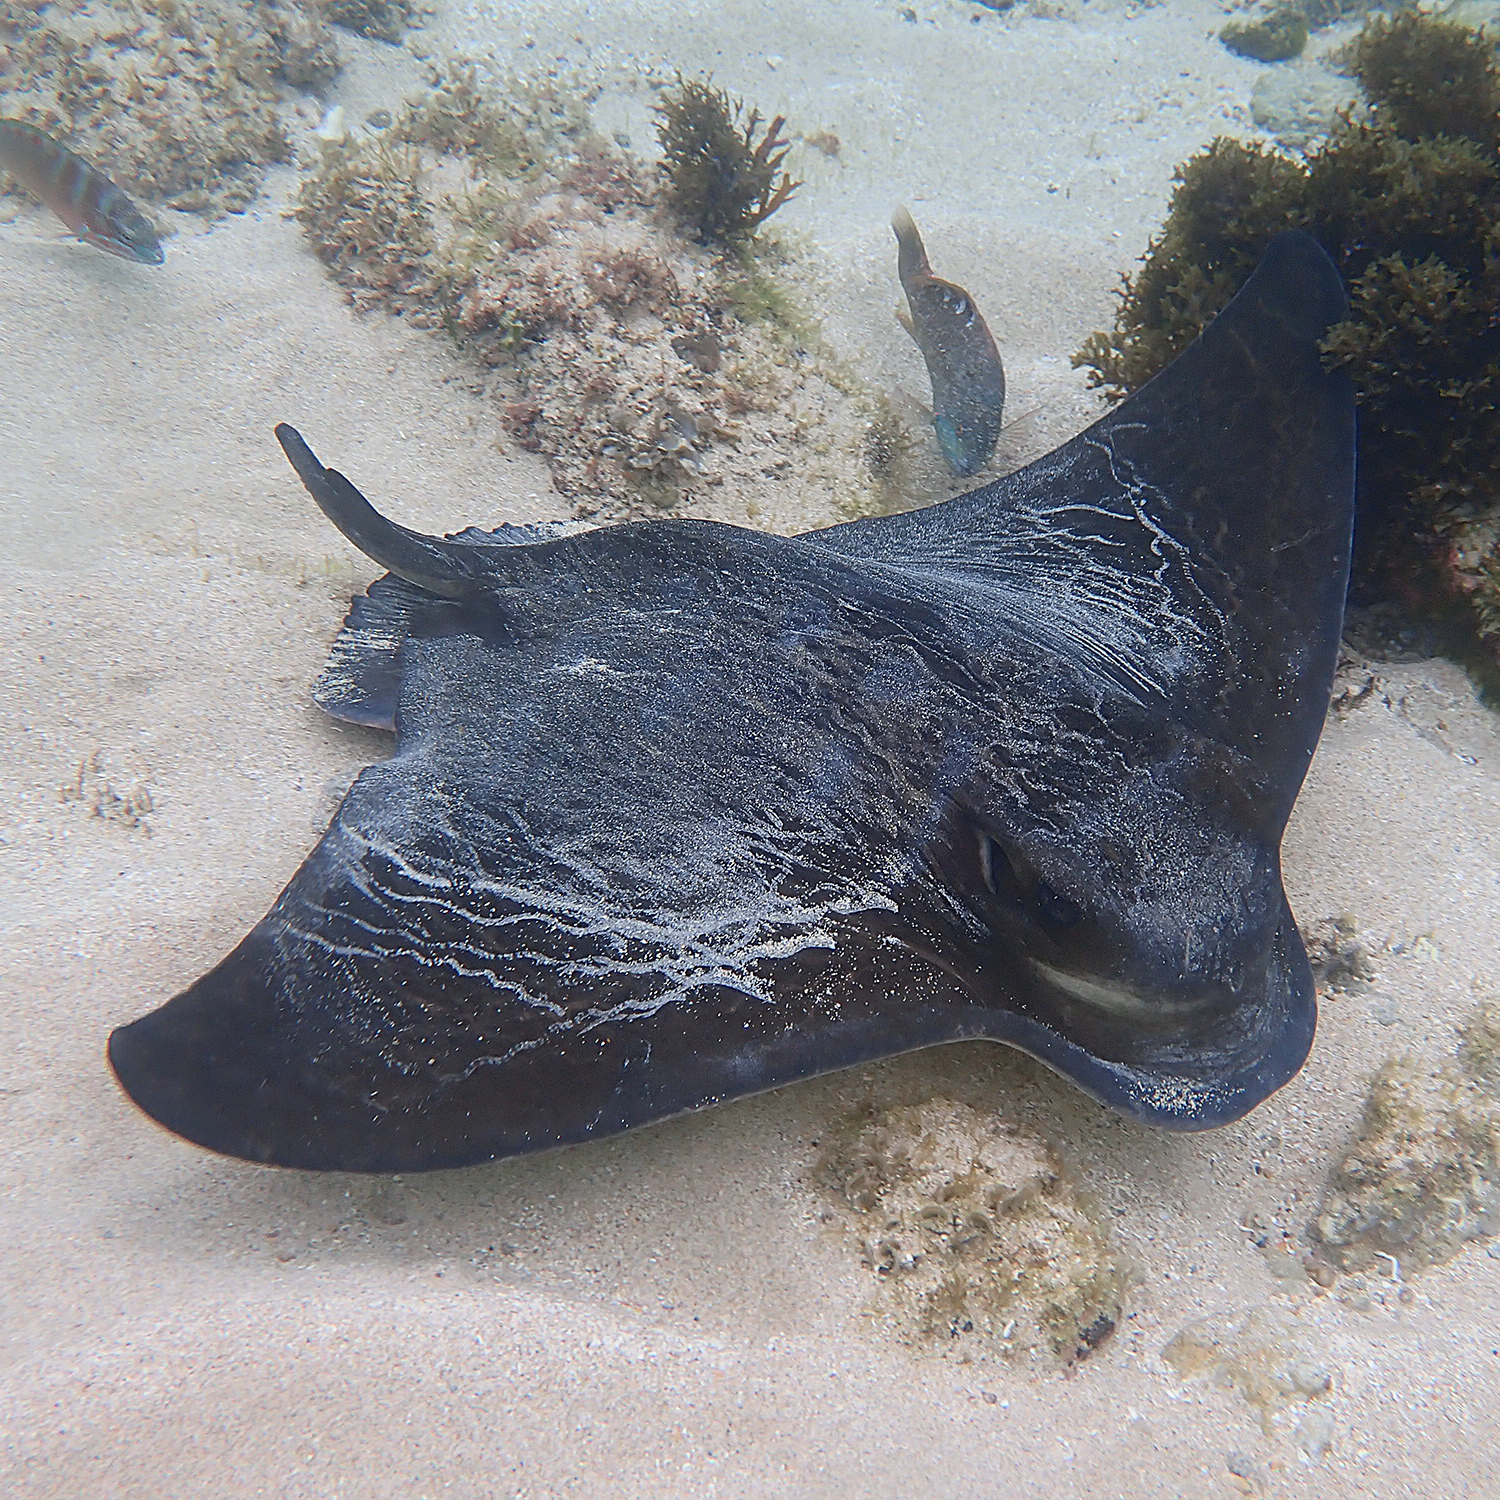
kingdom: Animalia
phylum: Chordata
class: Elasmobranchii
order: Myliobatiformes
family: Myliobatidae
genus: Myliobatis
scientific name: Myliobatis tenuicaudatus
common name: Eagle ray
